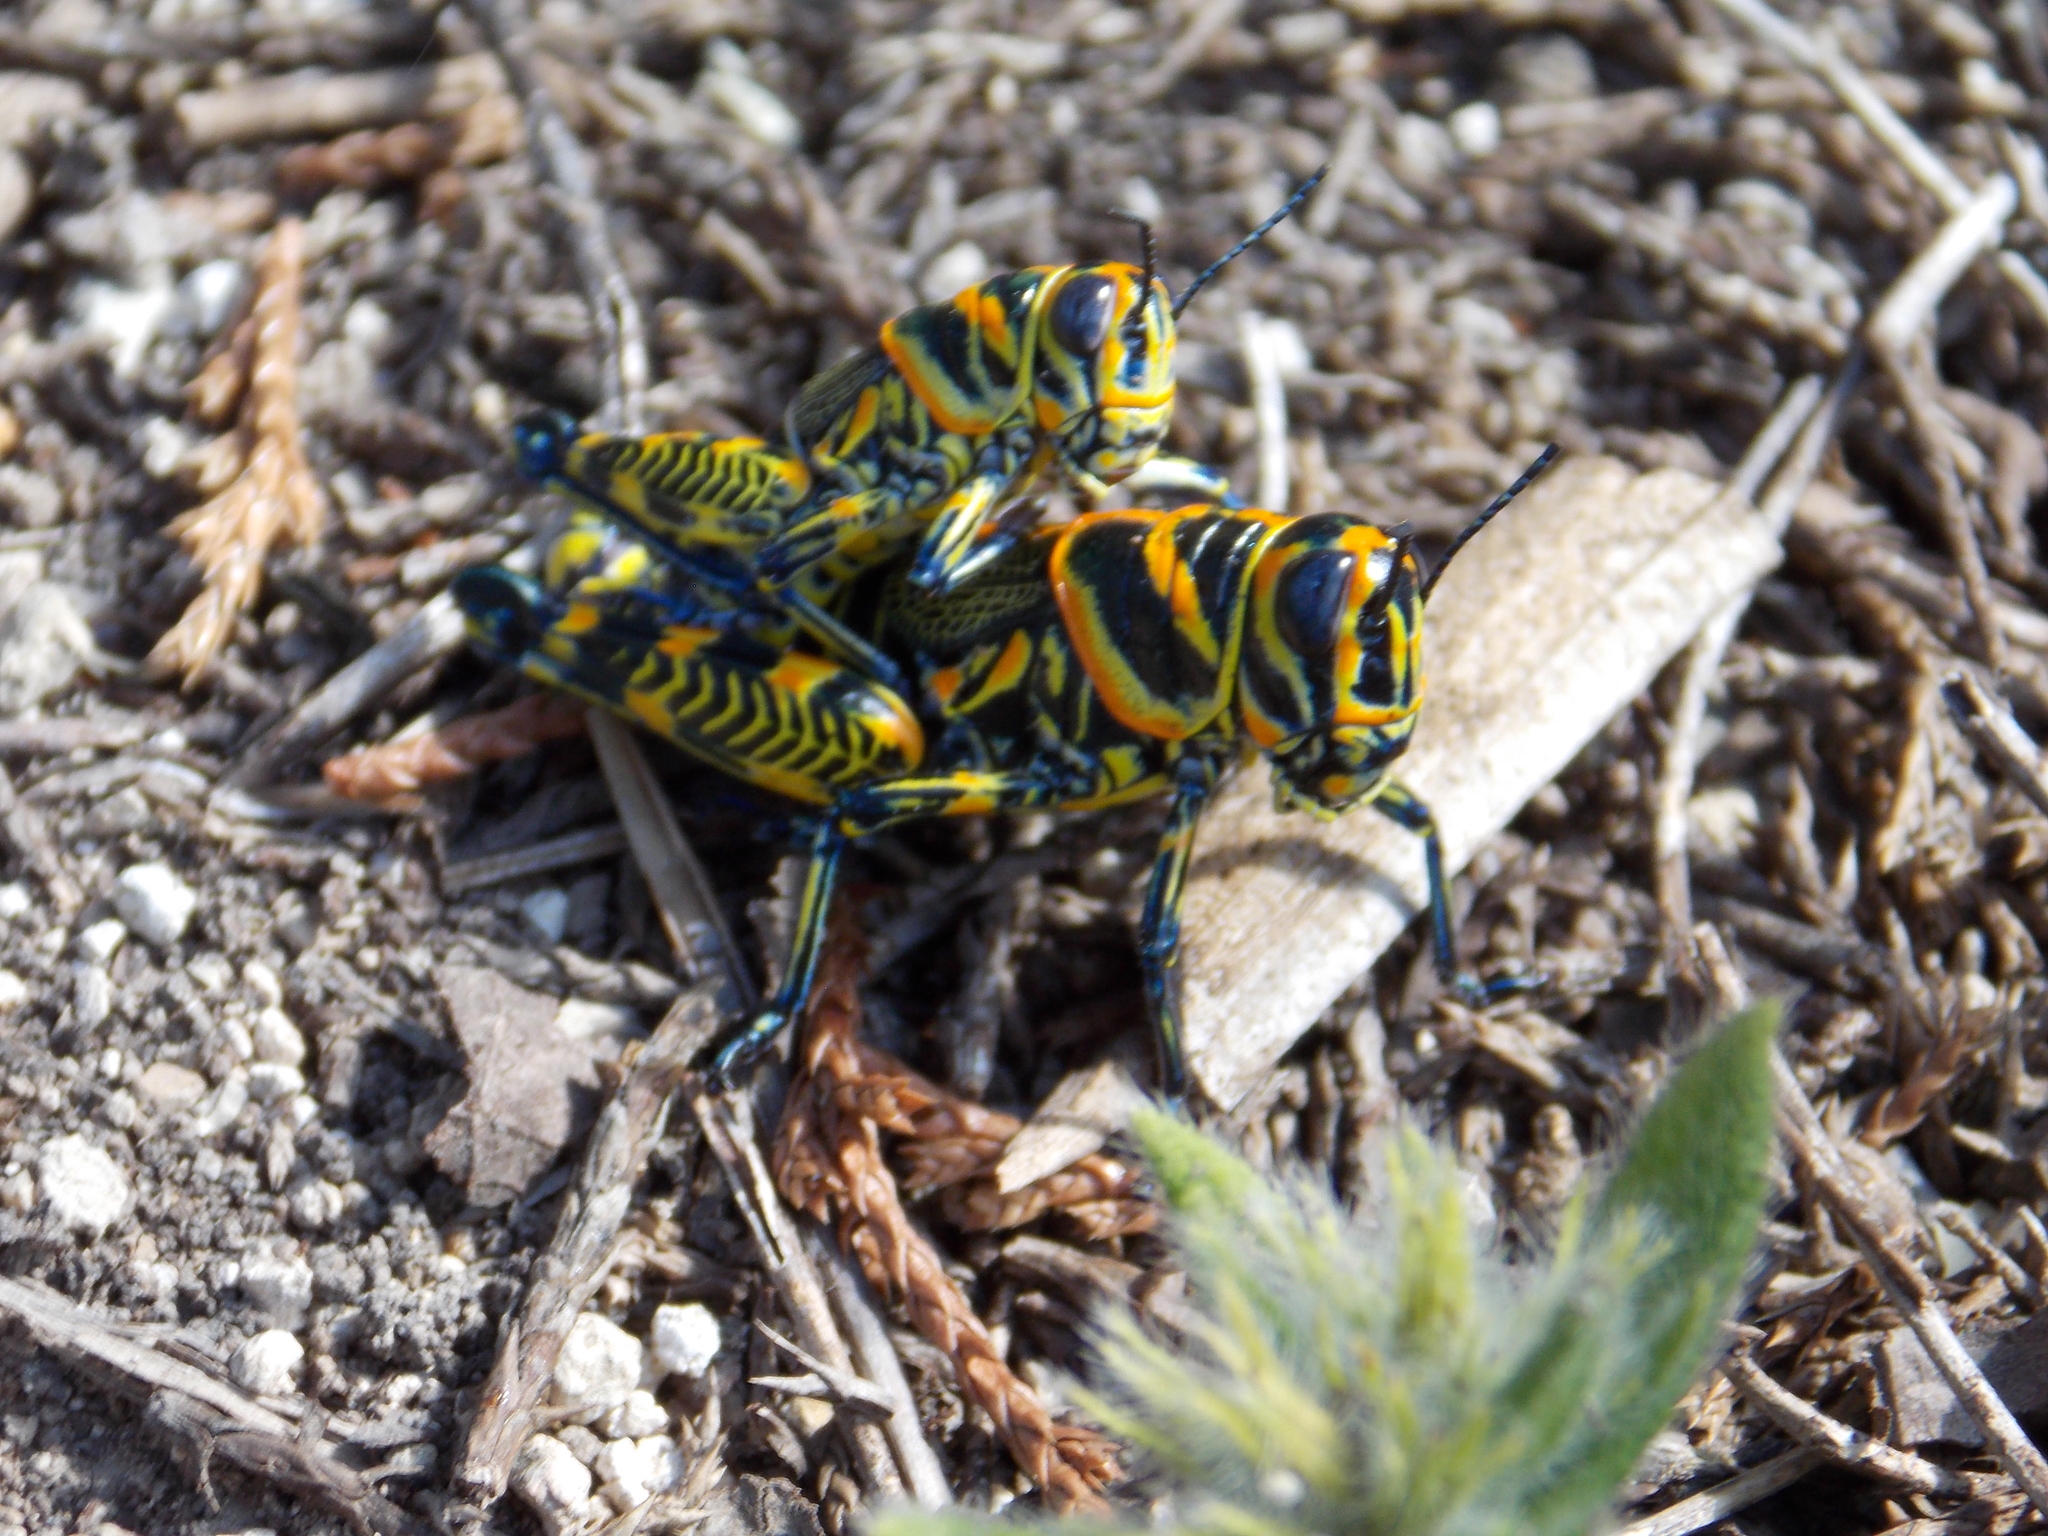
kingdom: Animalia
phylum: Arthropoda
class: Insecta
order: Orthoptera
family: Acrididae
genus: Dactylotum
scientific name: Dactylotum bicolor
